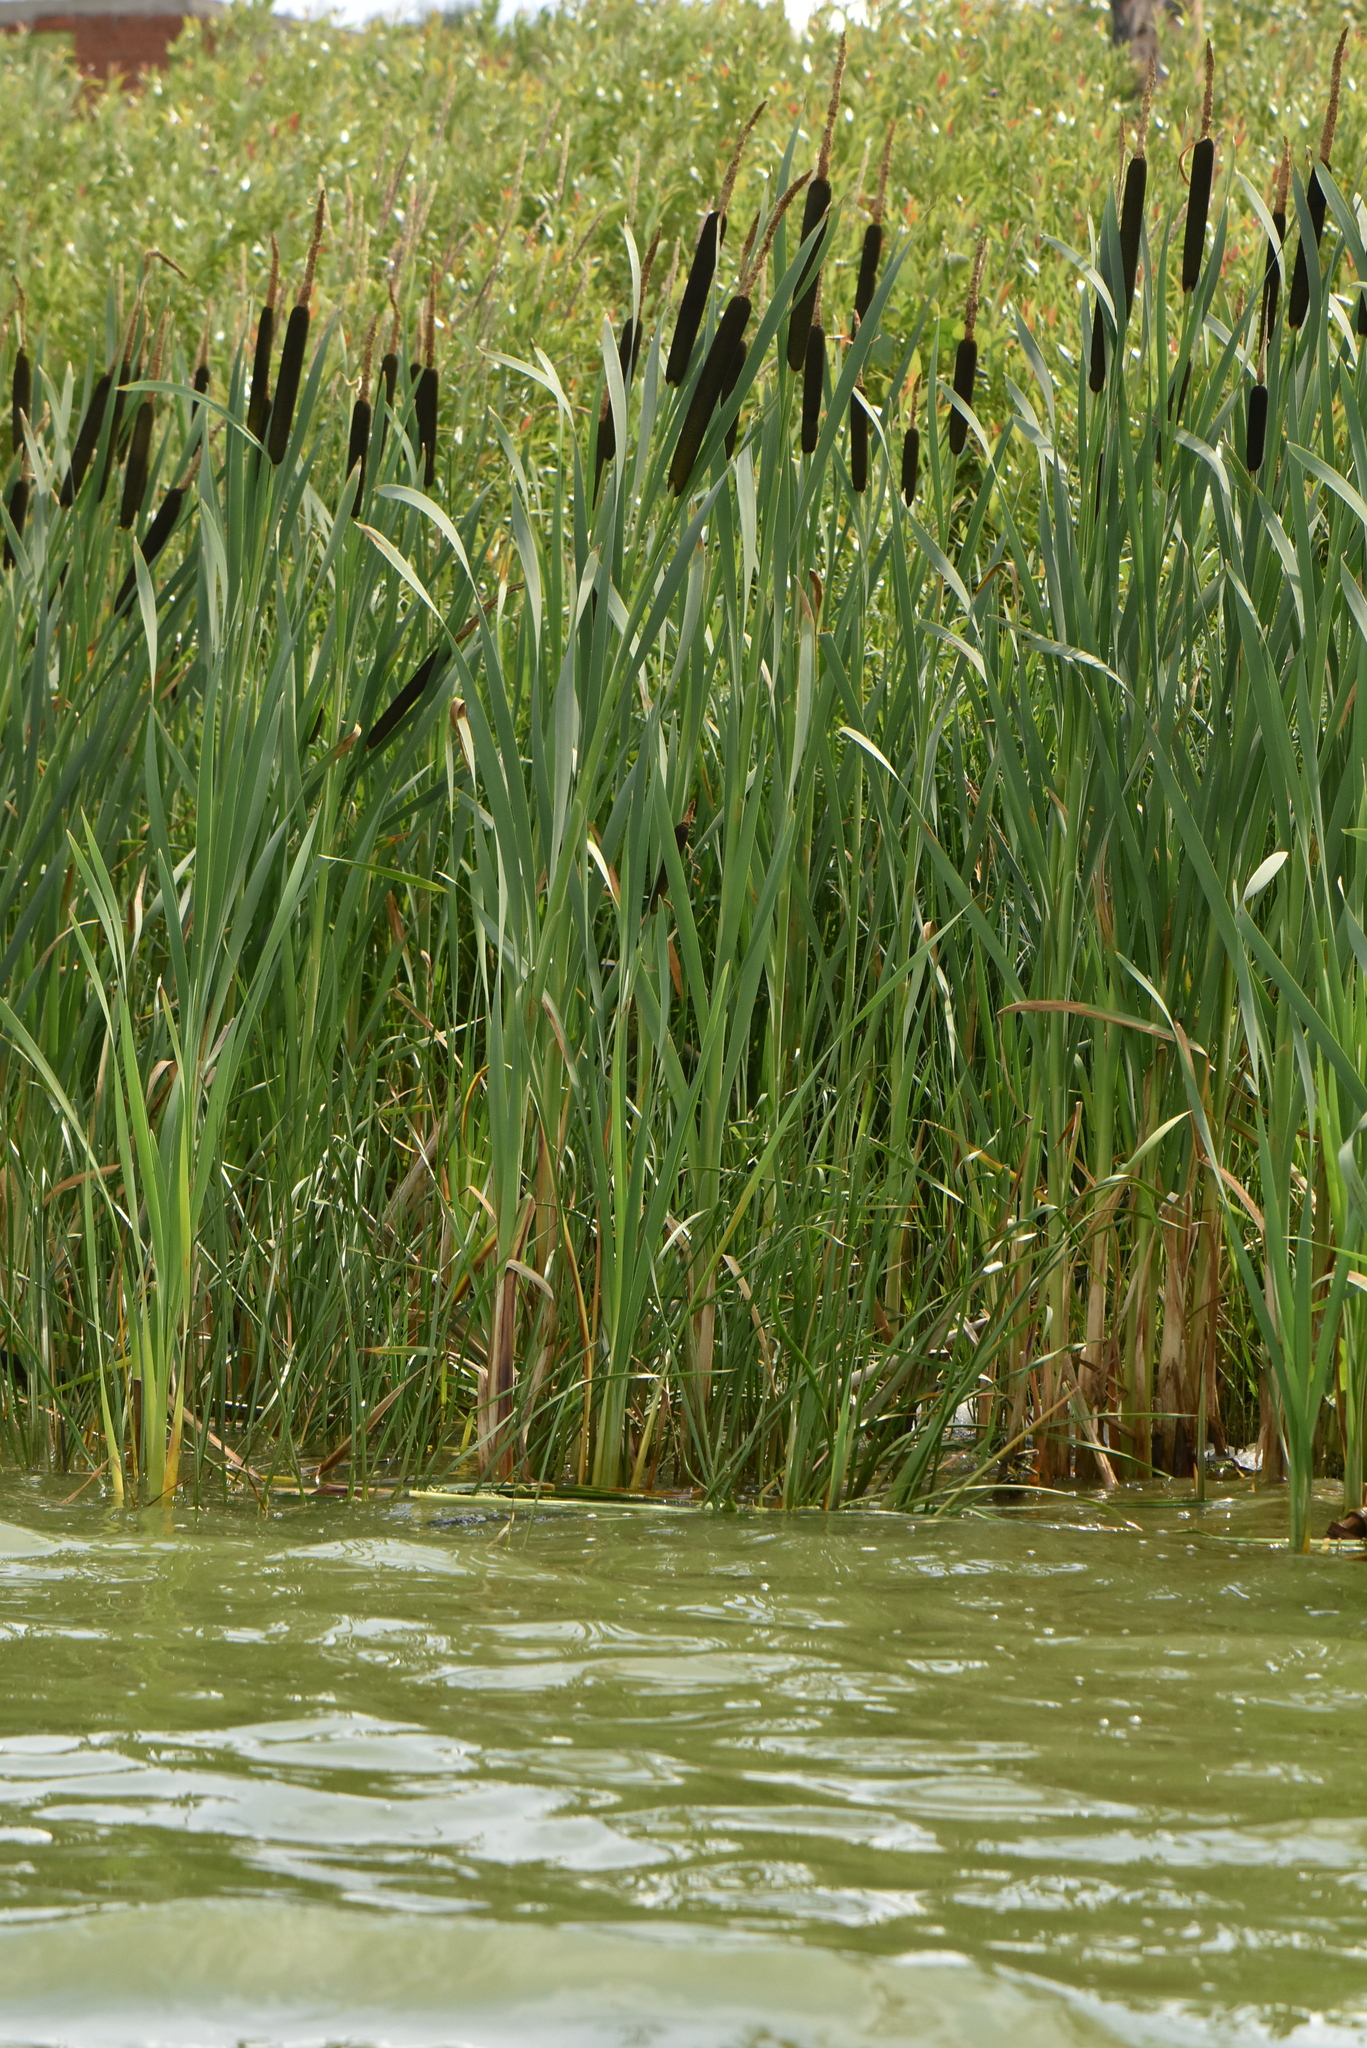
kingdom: Plantae
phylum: Tracheophyta
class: Liliopsida
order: Poales
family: Typhaceae
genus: Typha
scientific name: Typha latifolia
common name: Broadleaf cattail
